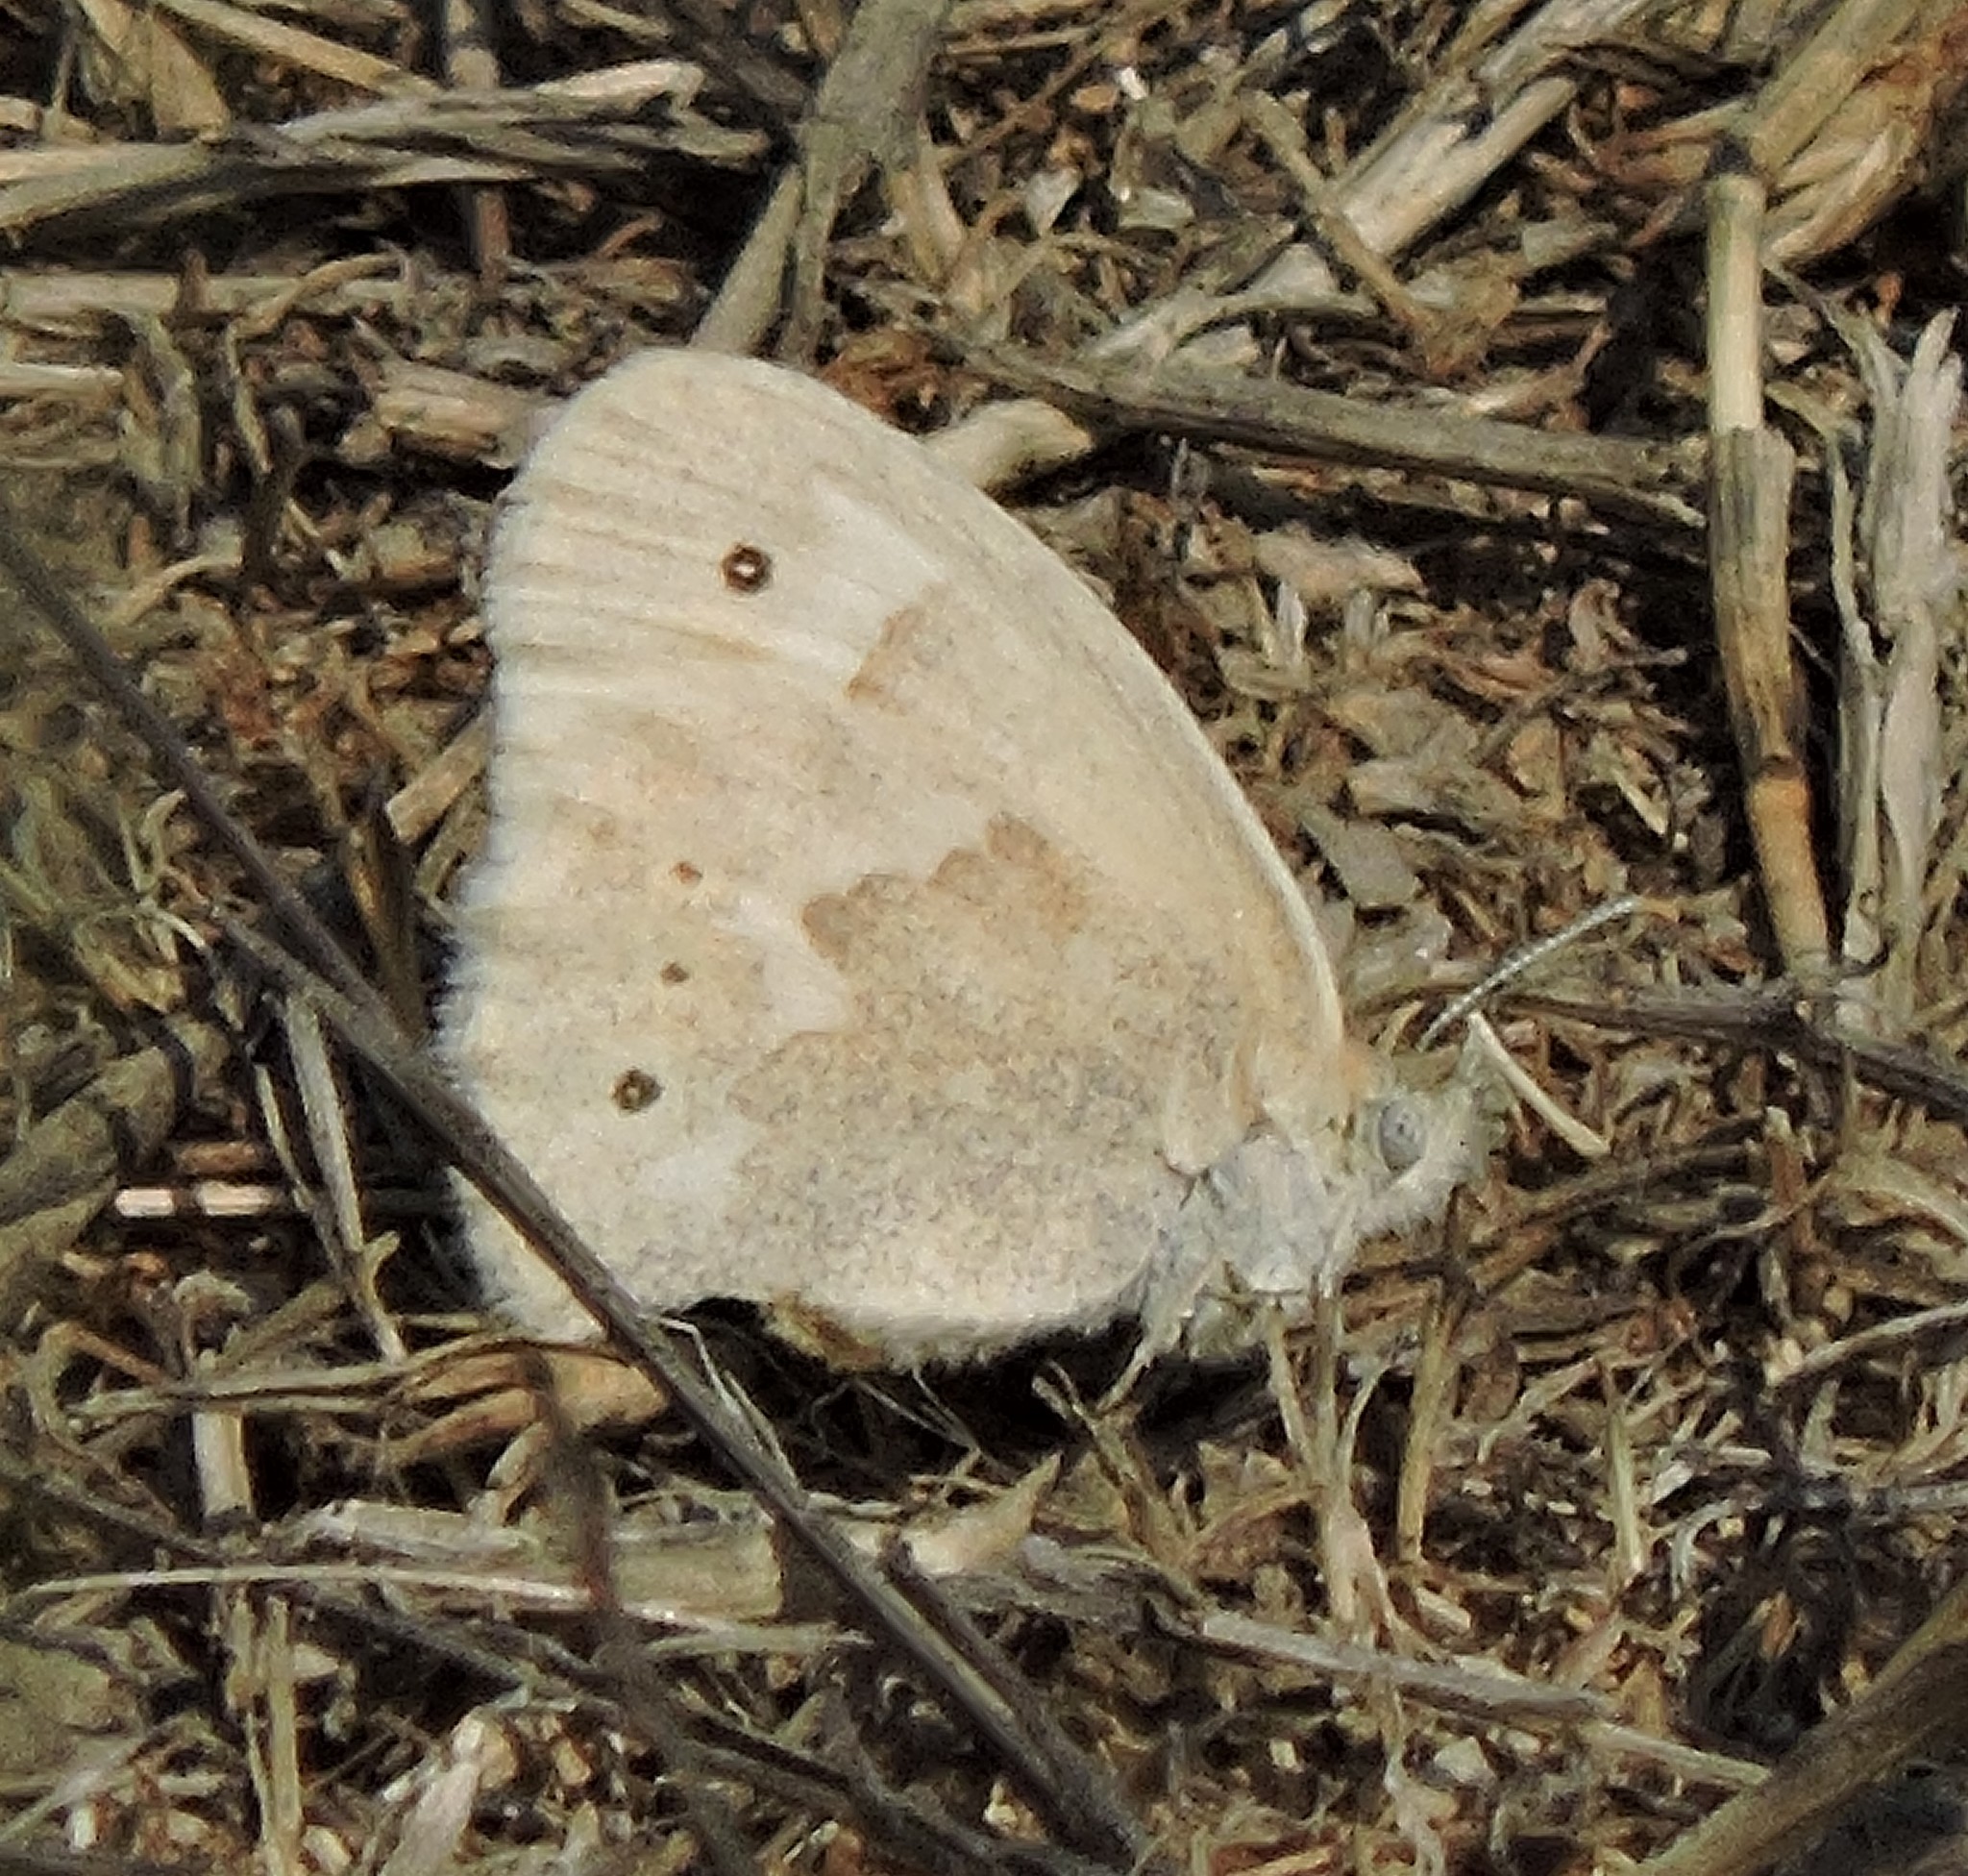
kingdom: Animalia
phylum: Arthropoda
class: Insecta
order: Lepidoptera
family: Nymphalidae
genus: Coenonympha
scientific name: Coenonympha california
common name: Common ringlet
